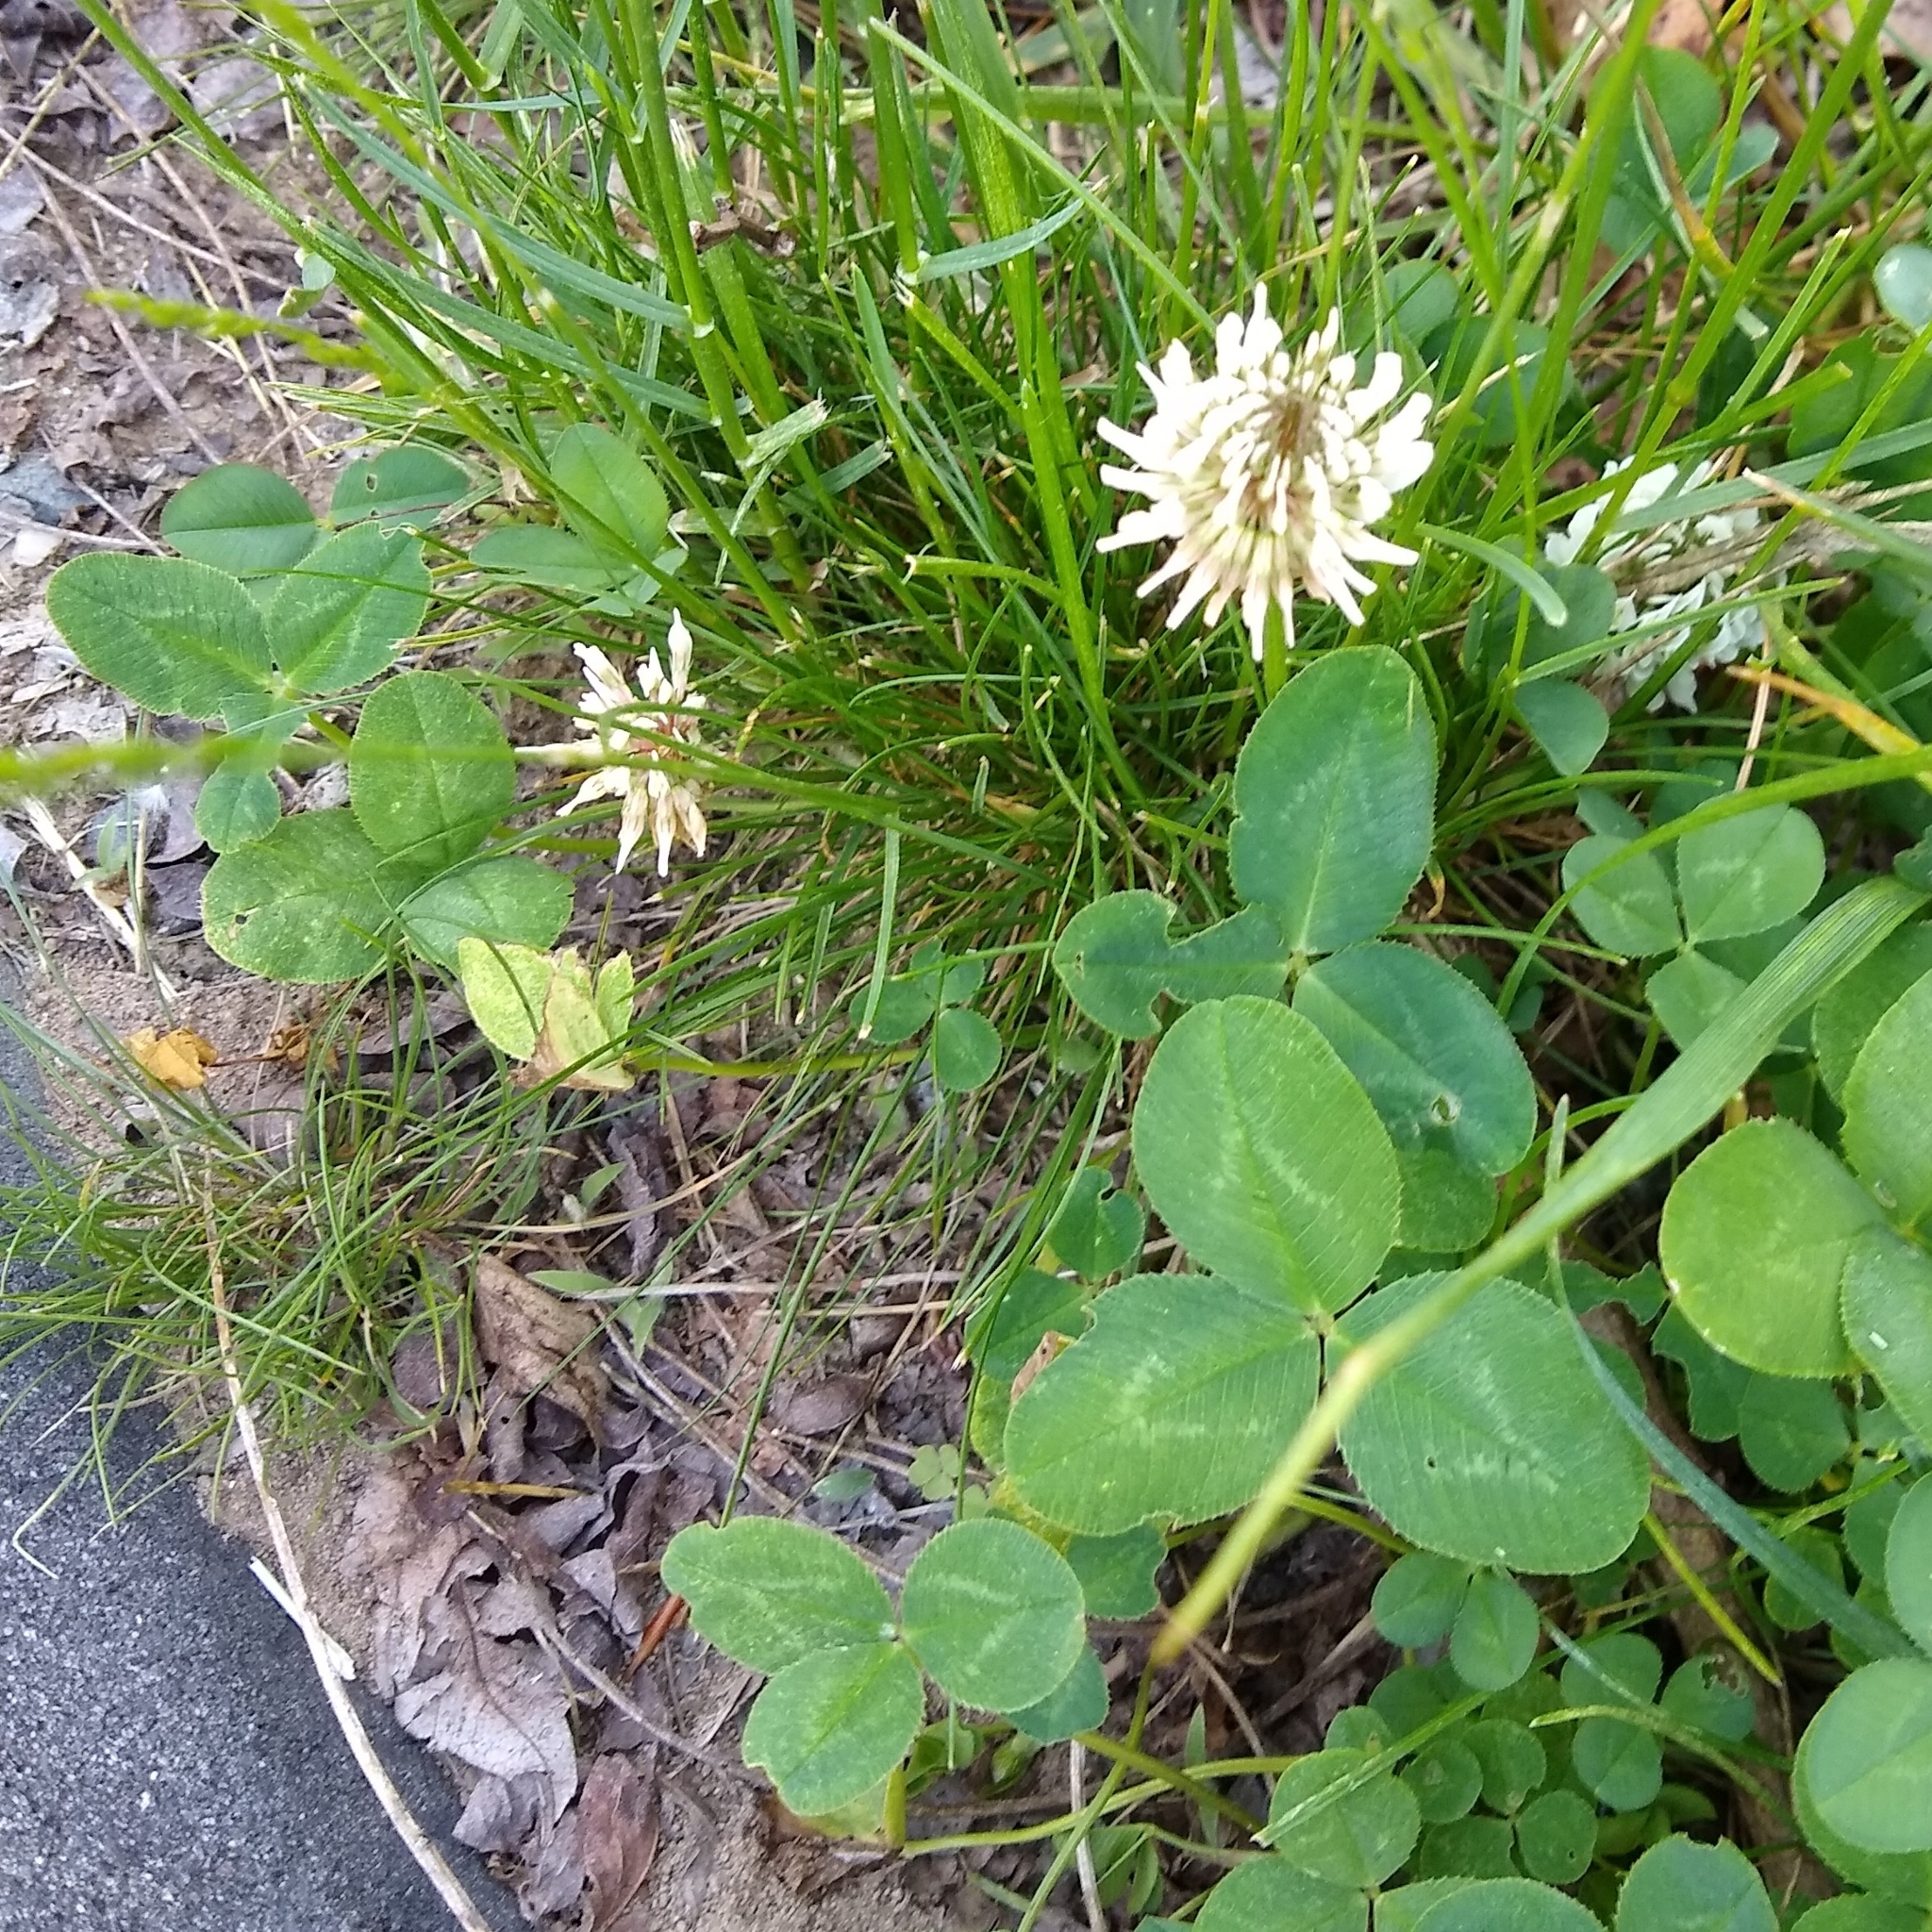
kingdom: Plantae
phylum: Tracheophyta
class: Magnoliopsida
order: Fabales
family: Fabaceae
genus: Trifolium
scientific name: Trifolium repens
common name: White clover
